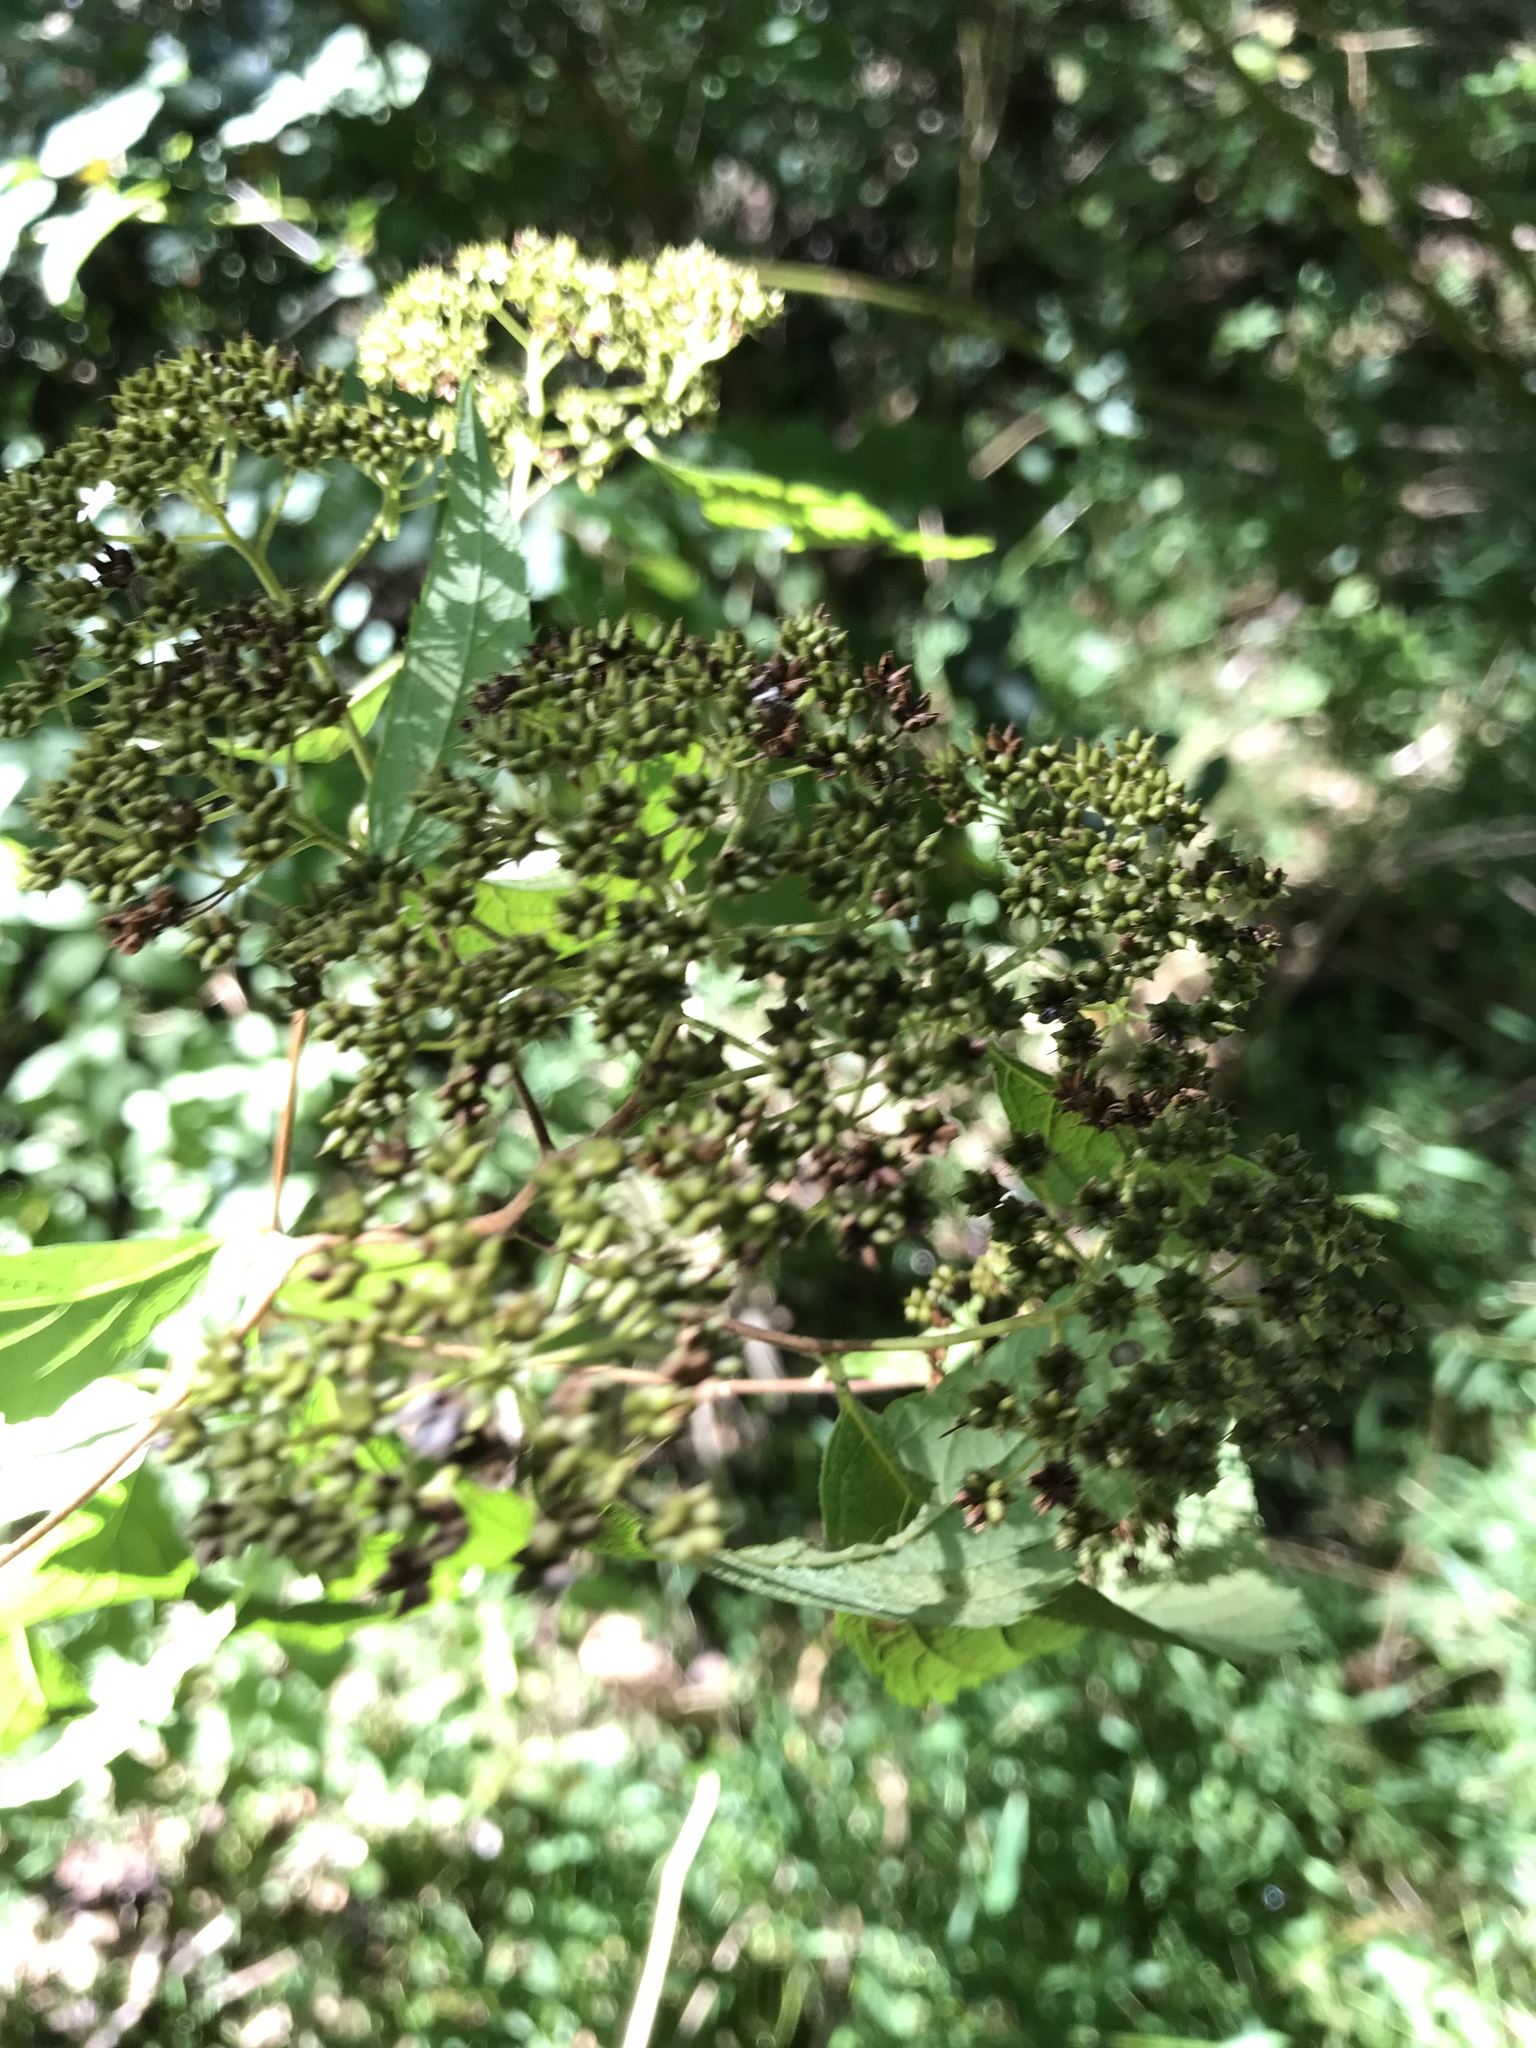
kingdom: Plantae
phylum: Tracheophyta
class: Magnoliopsida
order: Rosales
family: Rosaceae
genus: Spiraea
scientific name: Spiraea japonica
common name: Japanese spiraea
